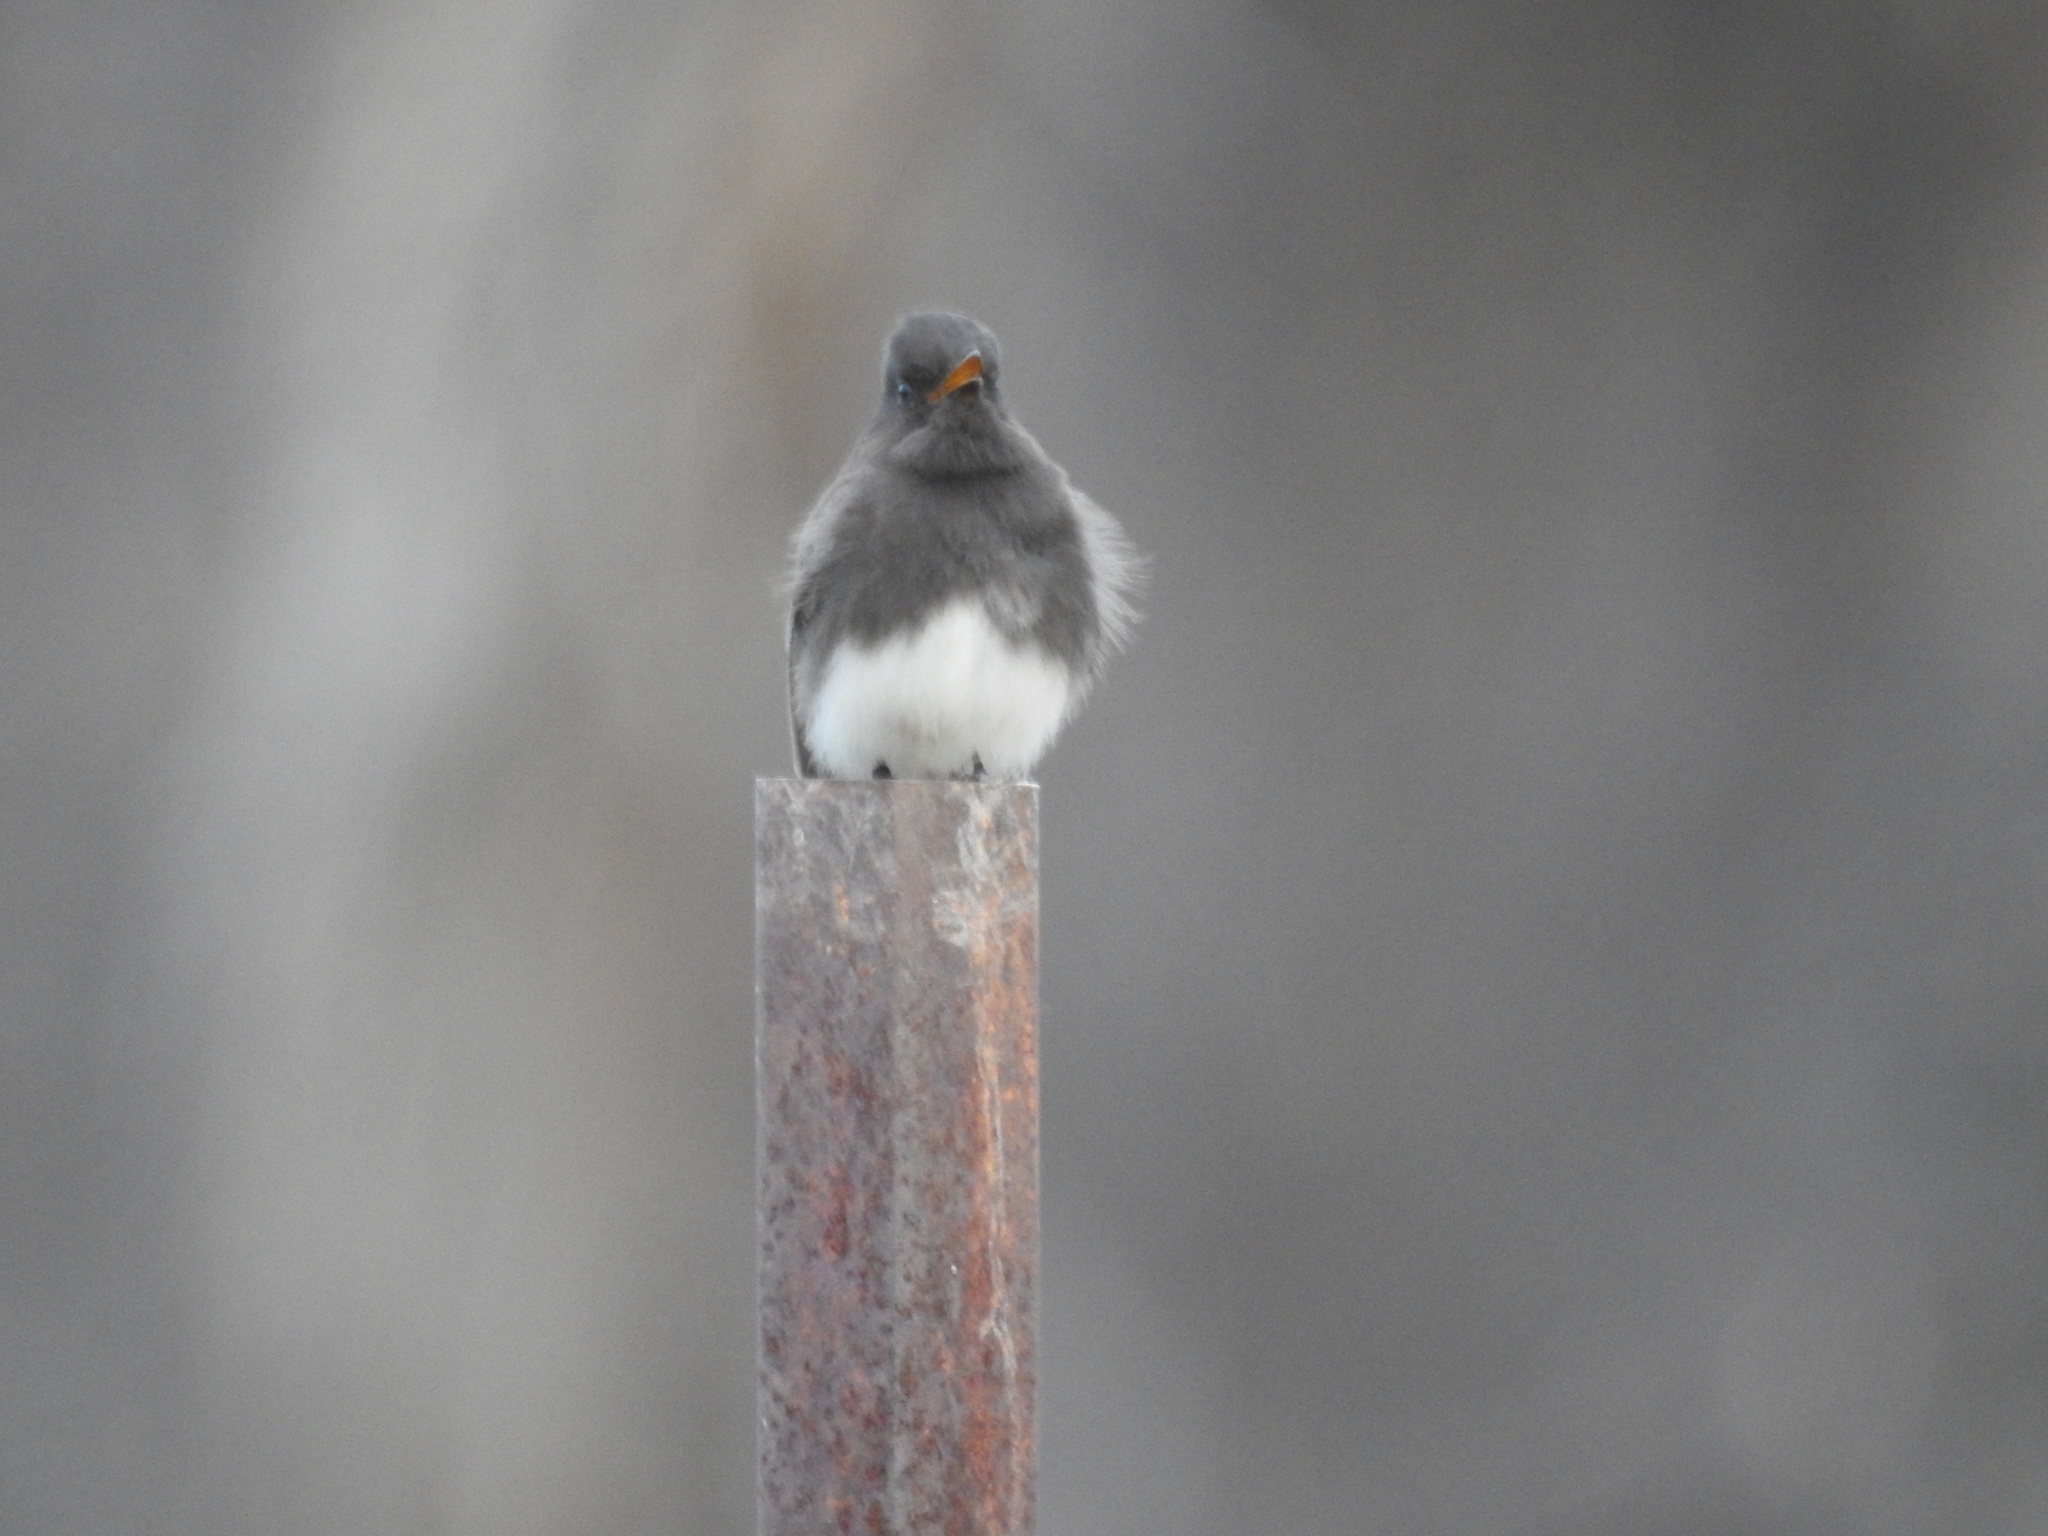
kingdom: Animalia
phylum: Chordata
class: Aves
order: Passeriformes
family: Tyrannidae
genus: Sayornis
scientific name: Sayornis nigricans
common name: Black phoebe
